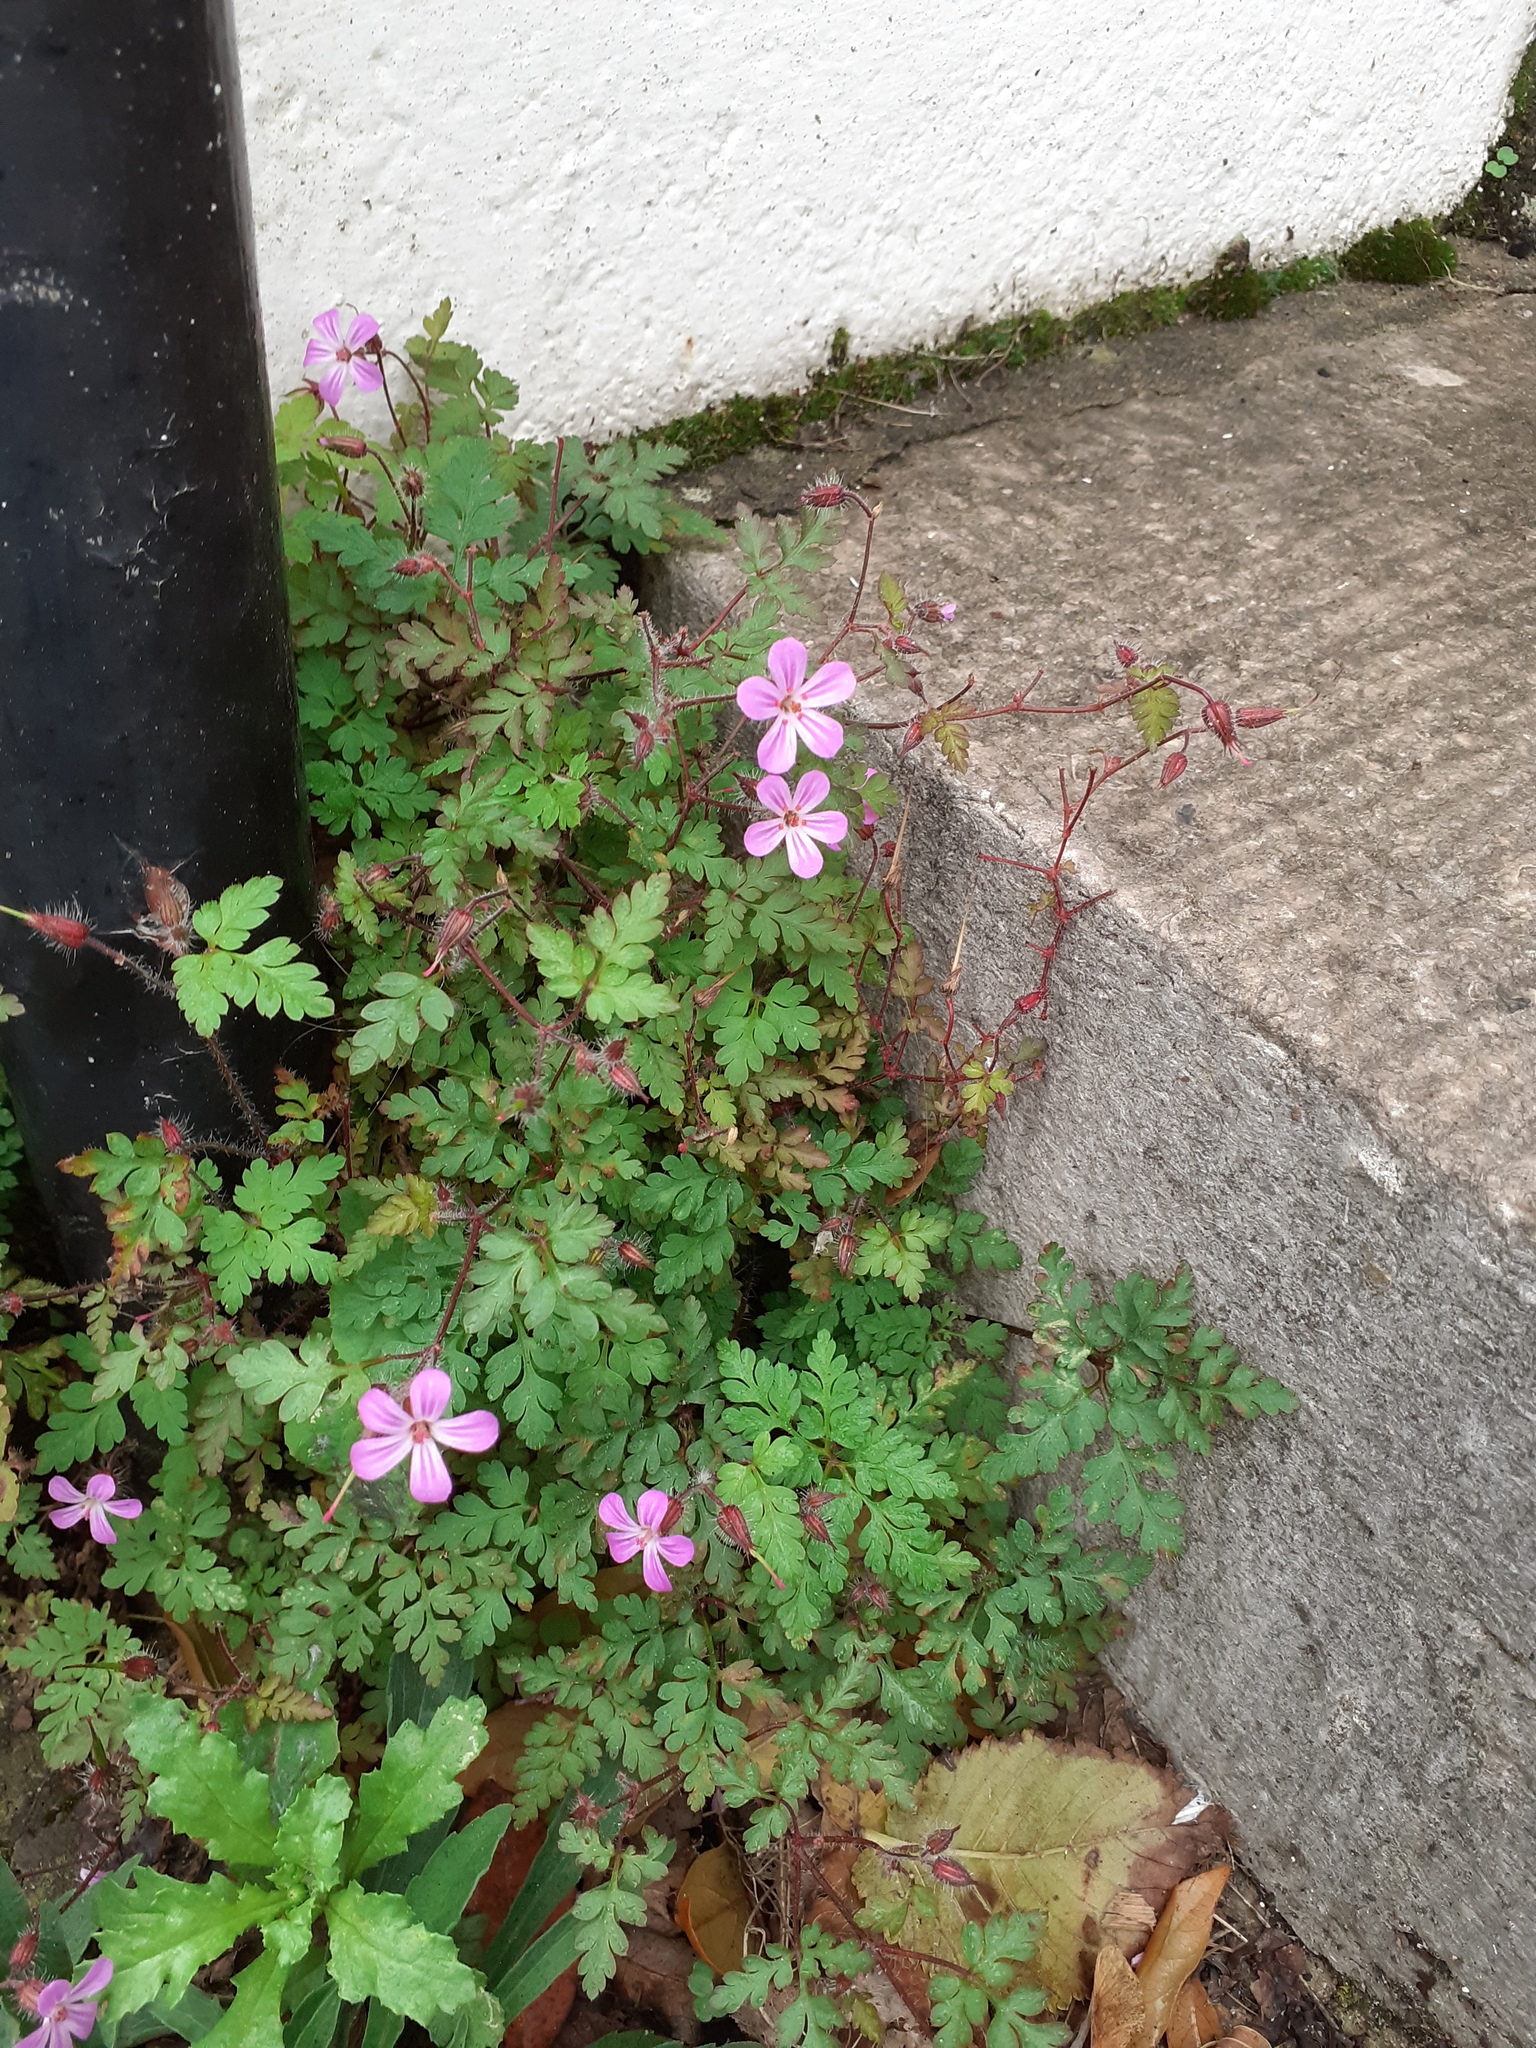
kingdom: Plantae
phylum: Tracheophyta
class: Magnoliopsida
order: Geraniales
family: Geraniaceae
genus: Geranium
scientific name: Geranium robertianum
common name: Herb-robert
